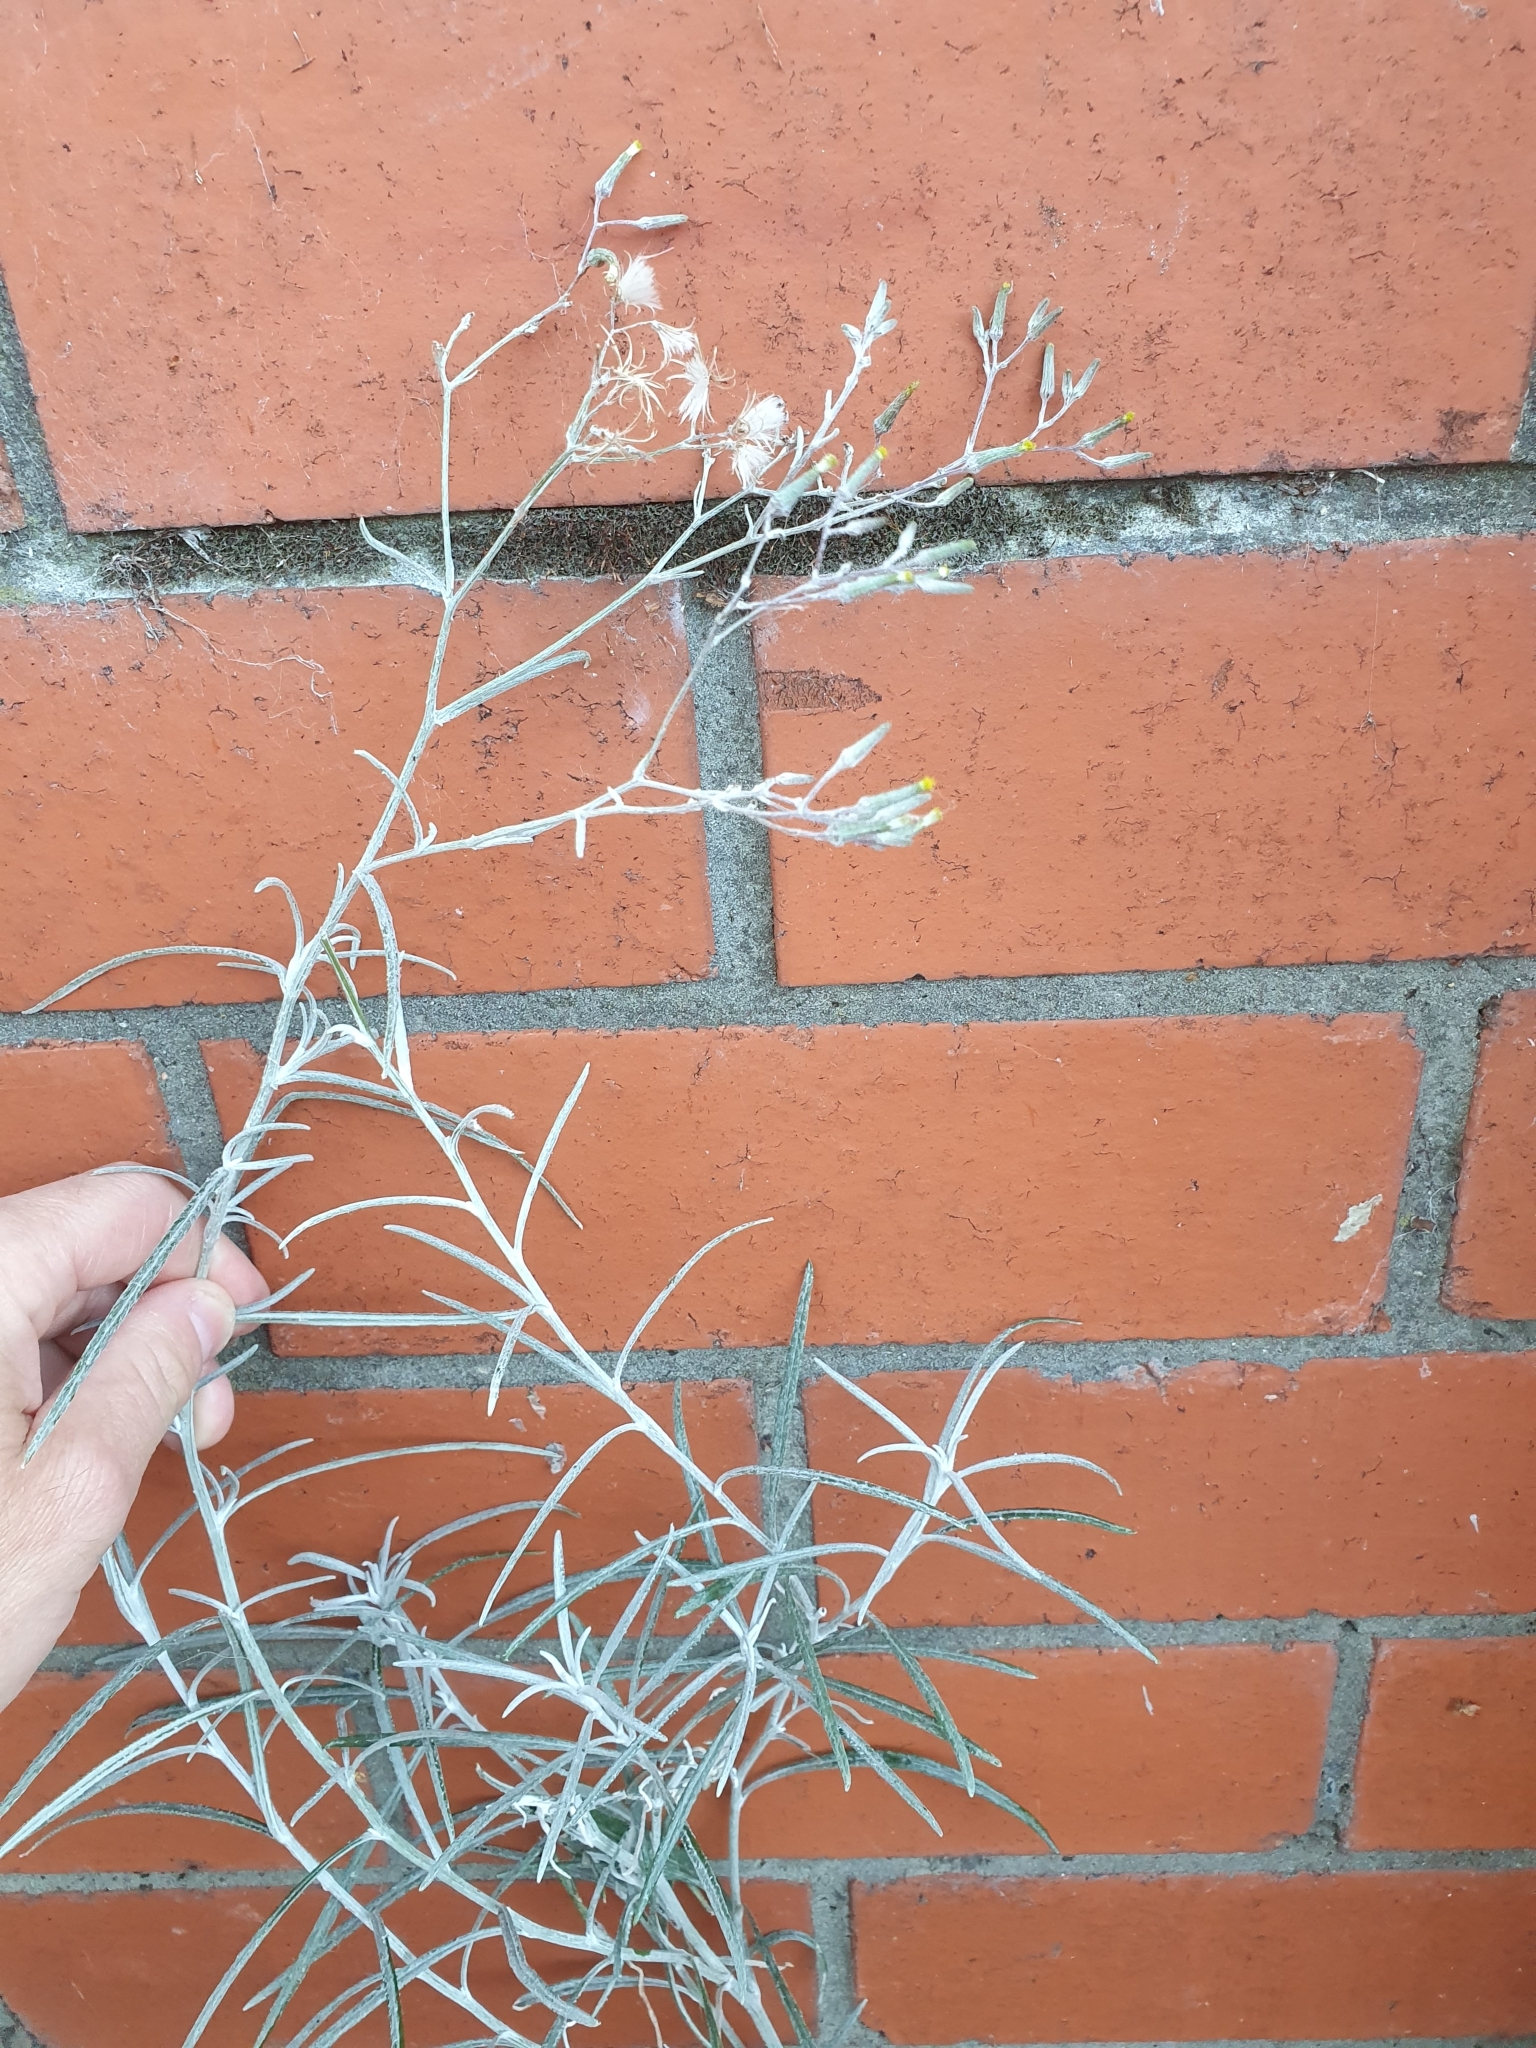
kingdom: Plantae
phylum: Tracheophyta
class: Magnoliopsida
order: Asterales
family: Asteraceae
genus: Senecio
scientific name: Senecio quadridentatus
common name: Cotton fireweed
